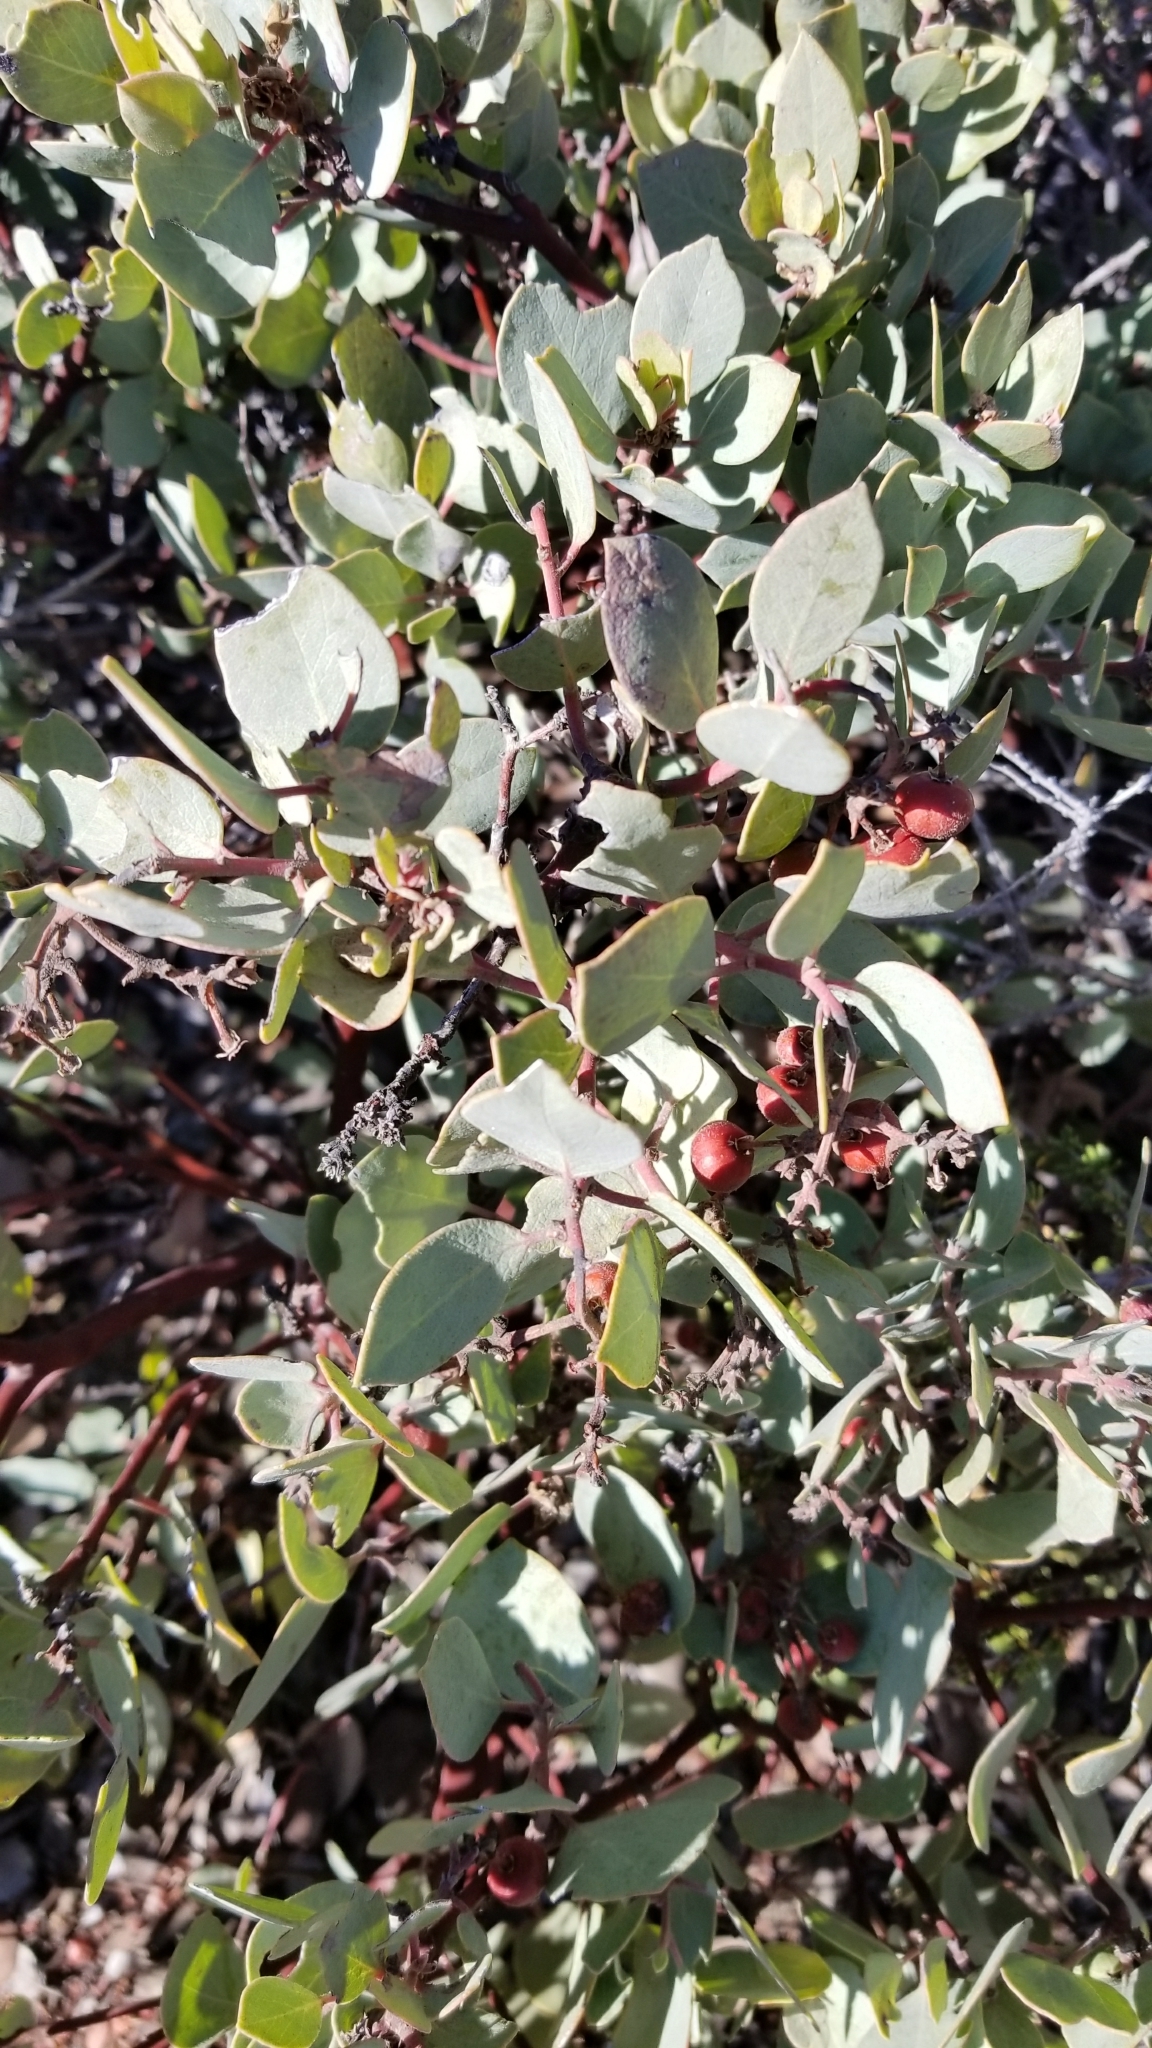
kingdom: Plantae
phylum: Tracheophyta
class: Magnoliopsida
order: Ericales
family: Ericaceae
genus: Arctostaphylos
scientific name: Arctostaphylos glandulosa
